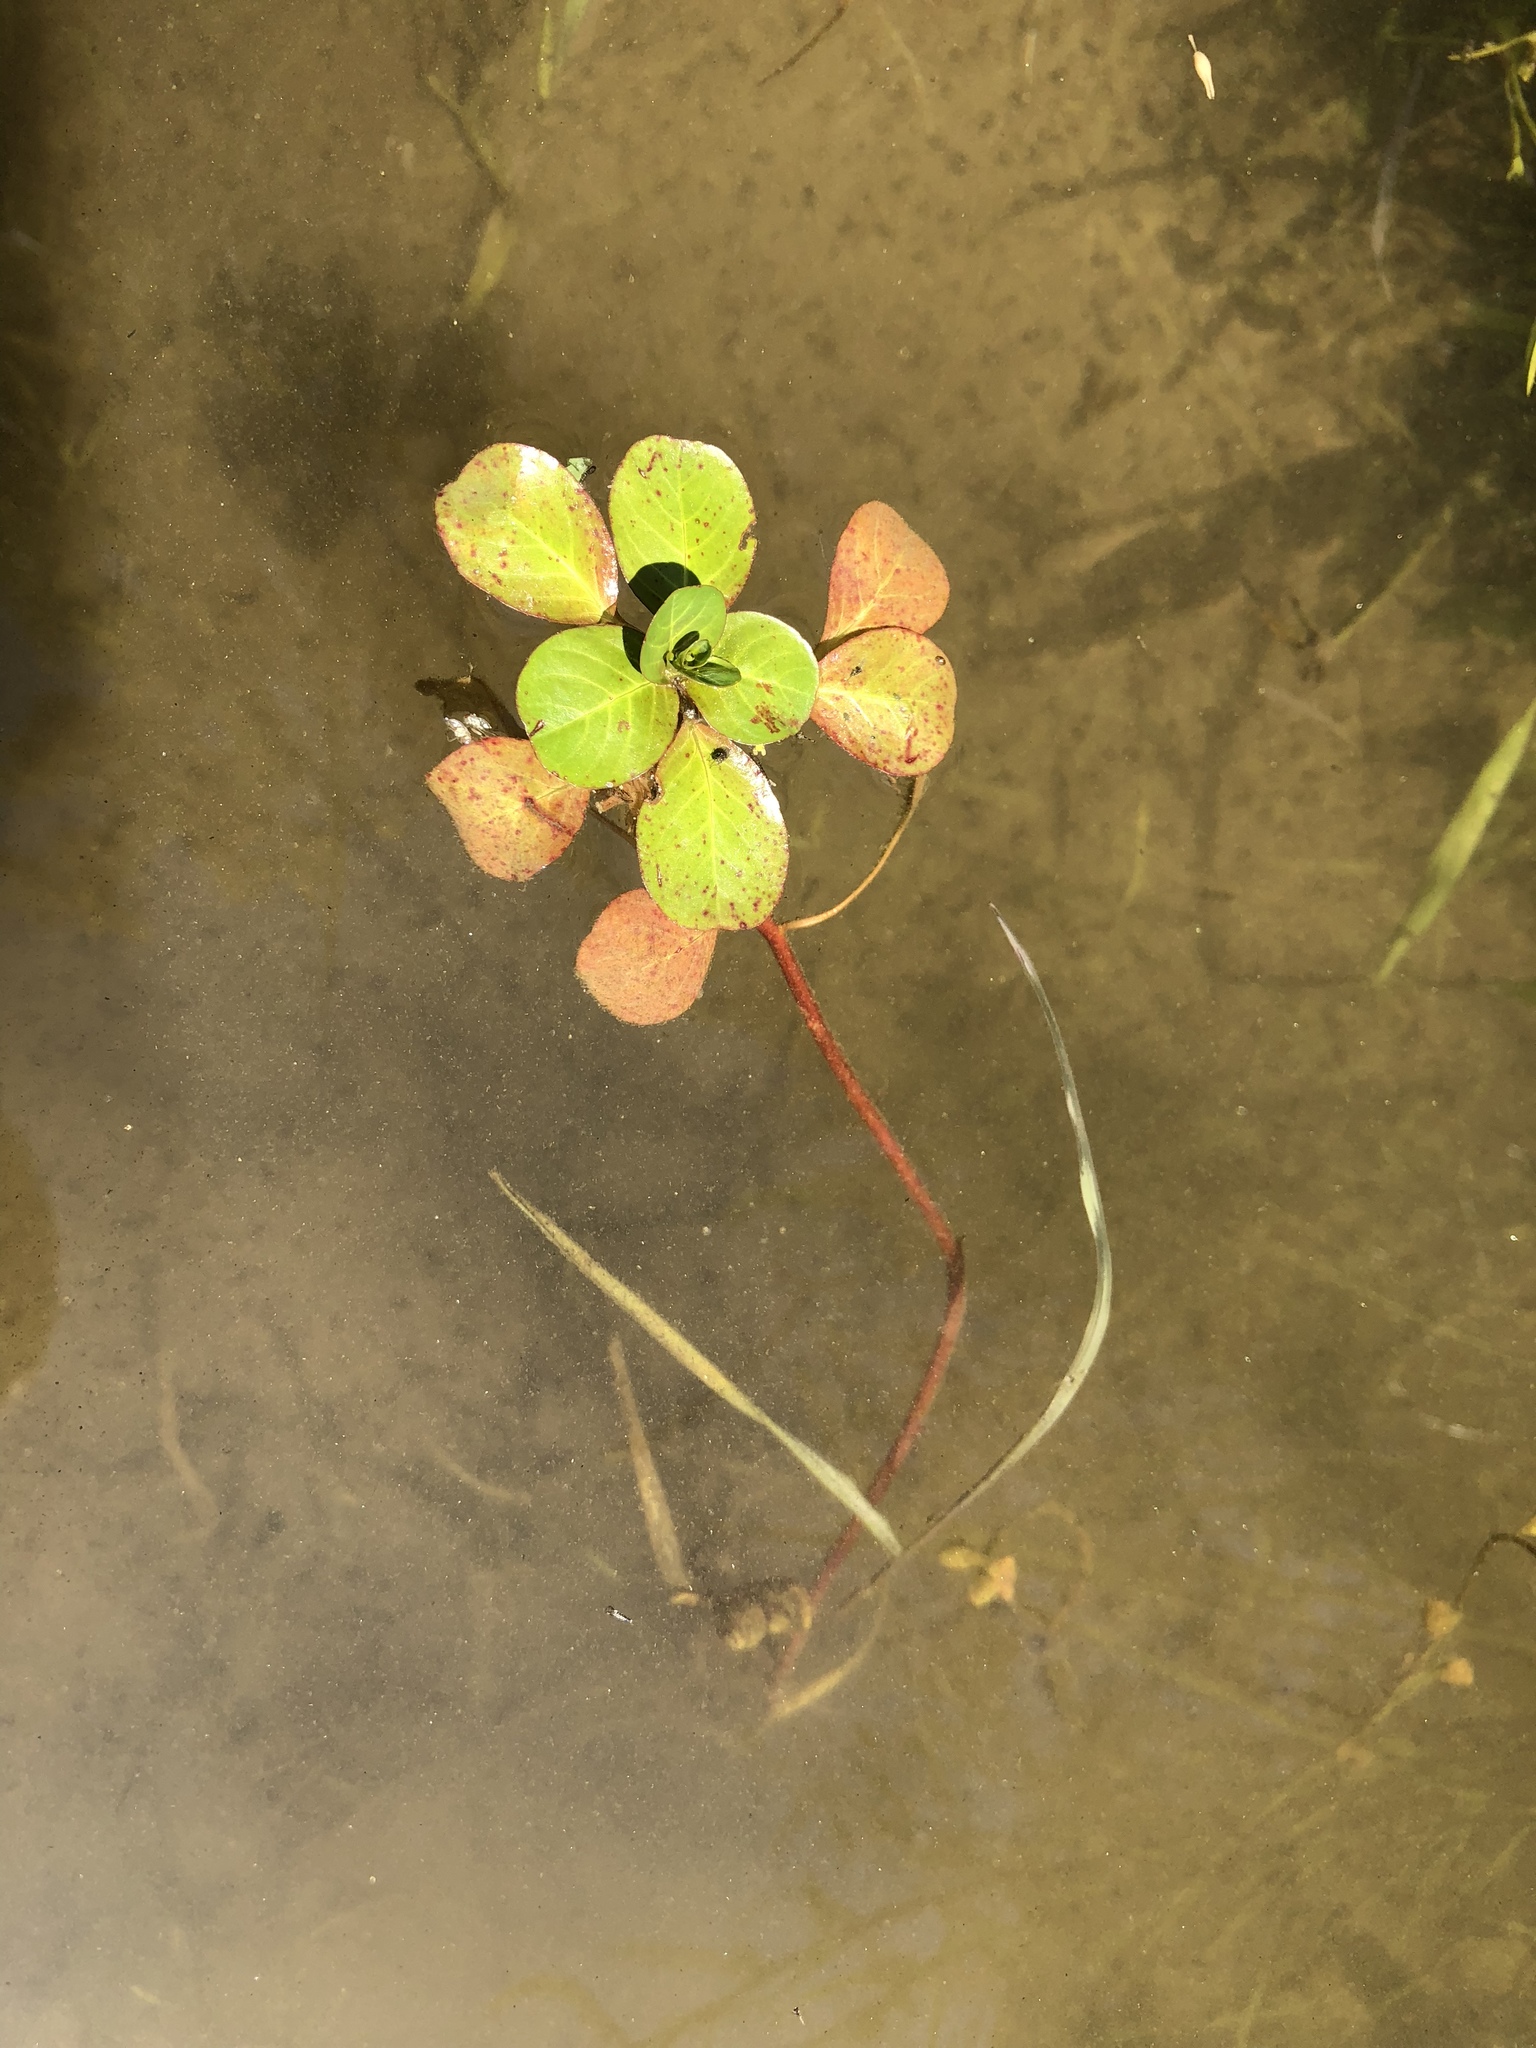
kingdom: Plantae
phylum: Tracheophyta
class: Magnoliopsida
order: Myrtales
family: Onagraceae
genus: Ludwigia
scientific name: Ludwigia peploides
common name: Floating primrose-willow
